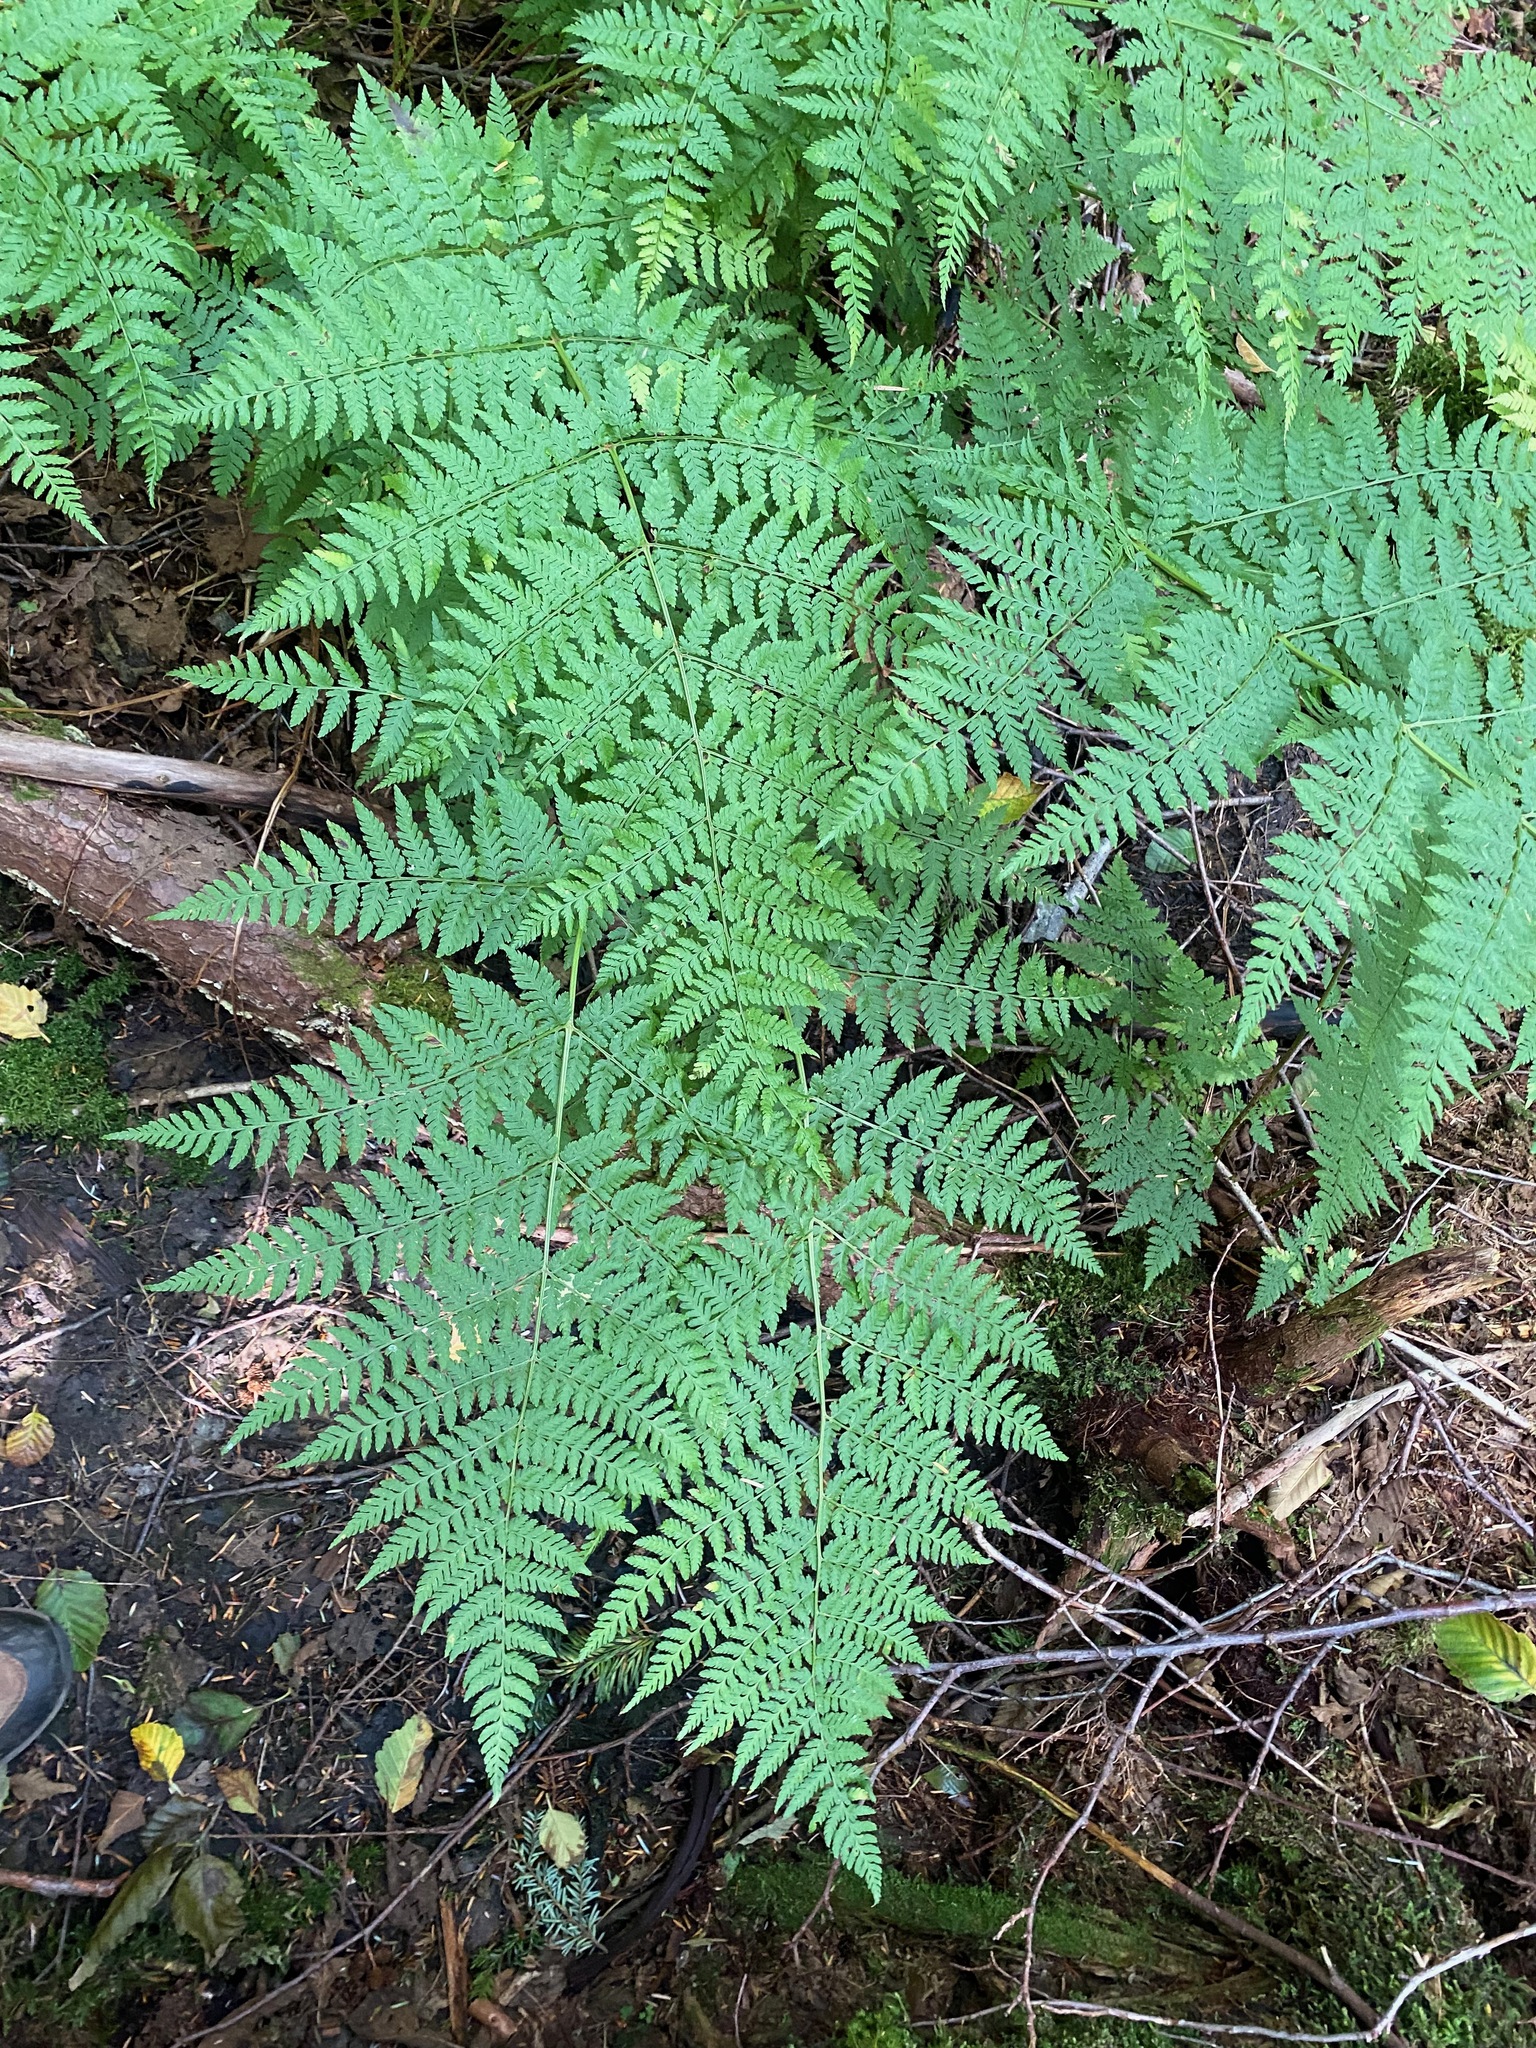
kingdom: Plantae
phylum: Tracheophyta
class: Polypodiopsida
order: Polypodiales
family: Dryopteridaceae
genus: Dryopteris
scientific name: Dryopteris expansa
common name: Northern buckler fern
